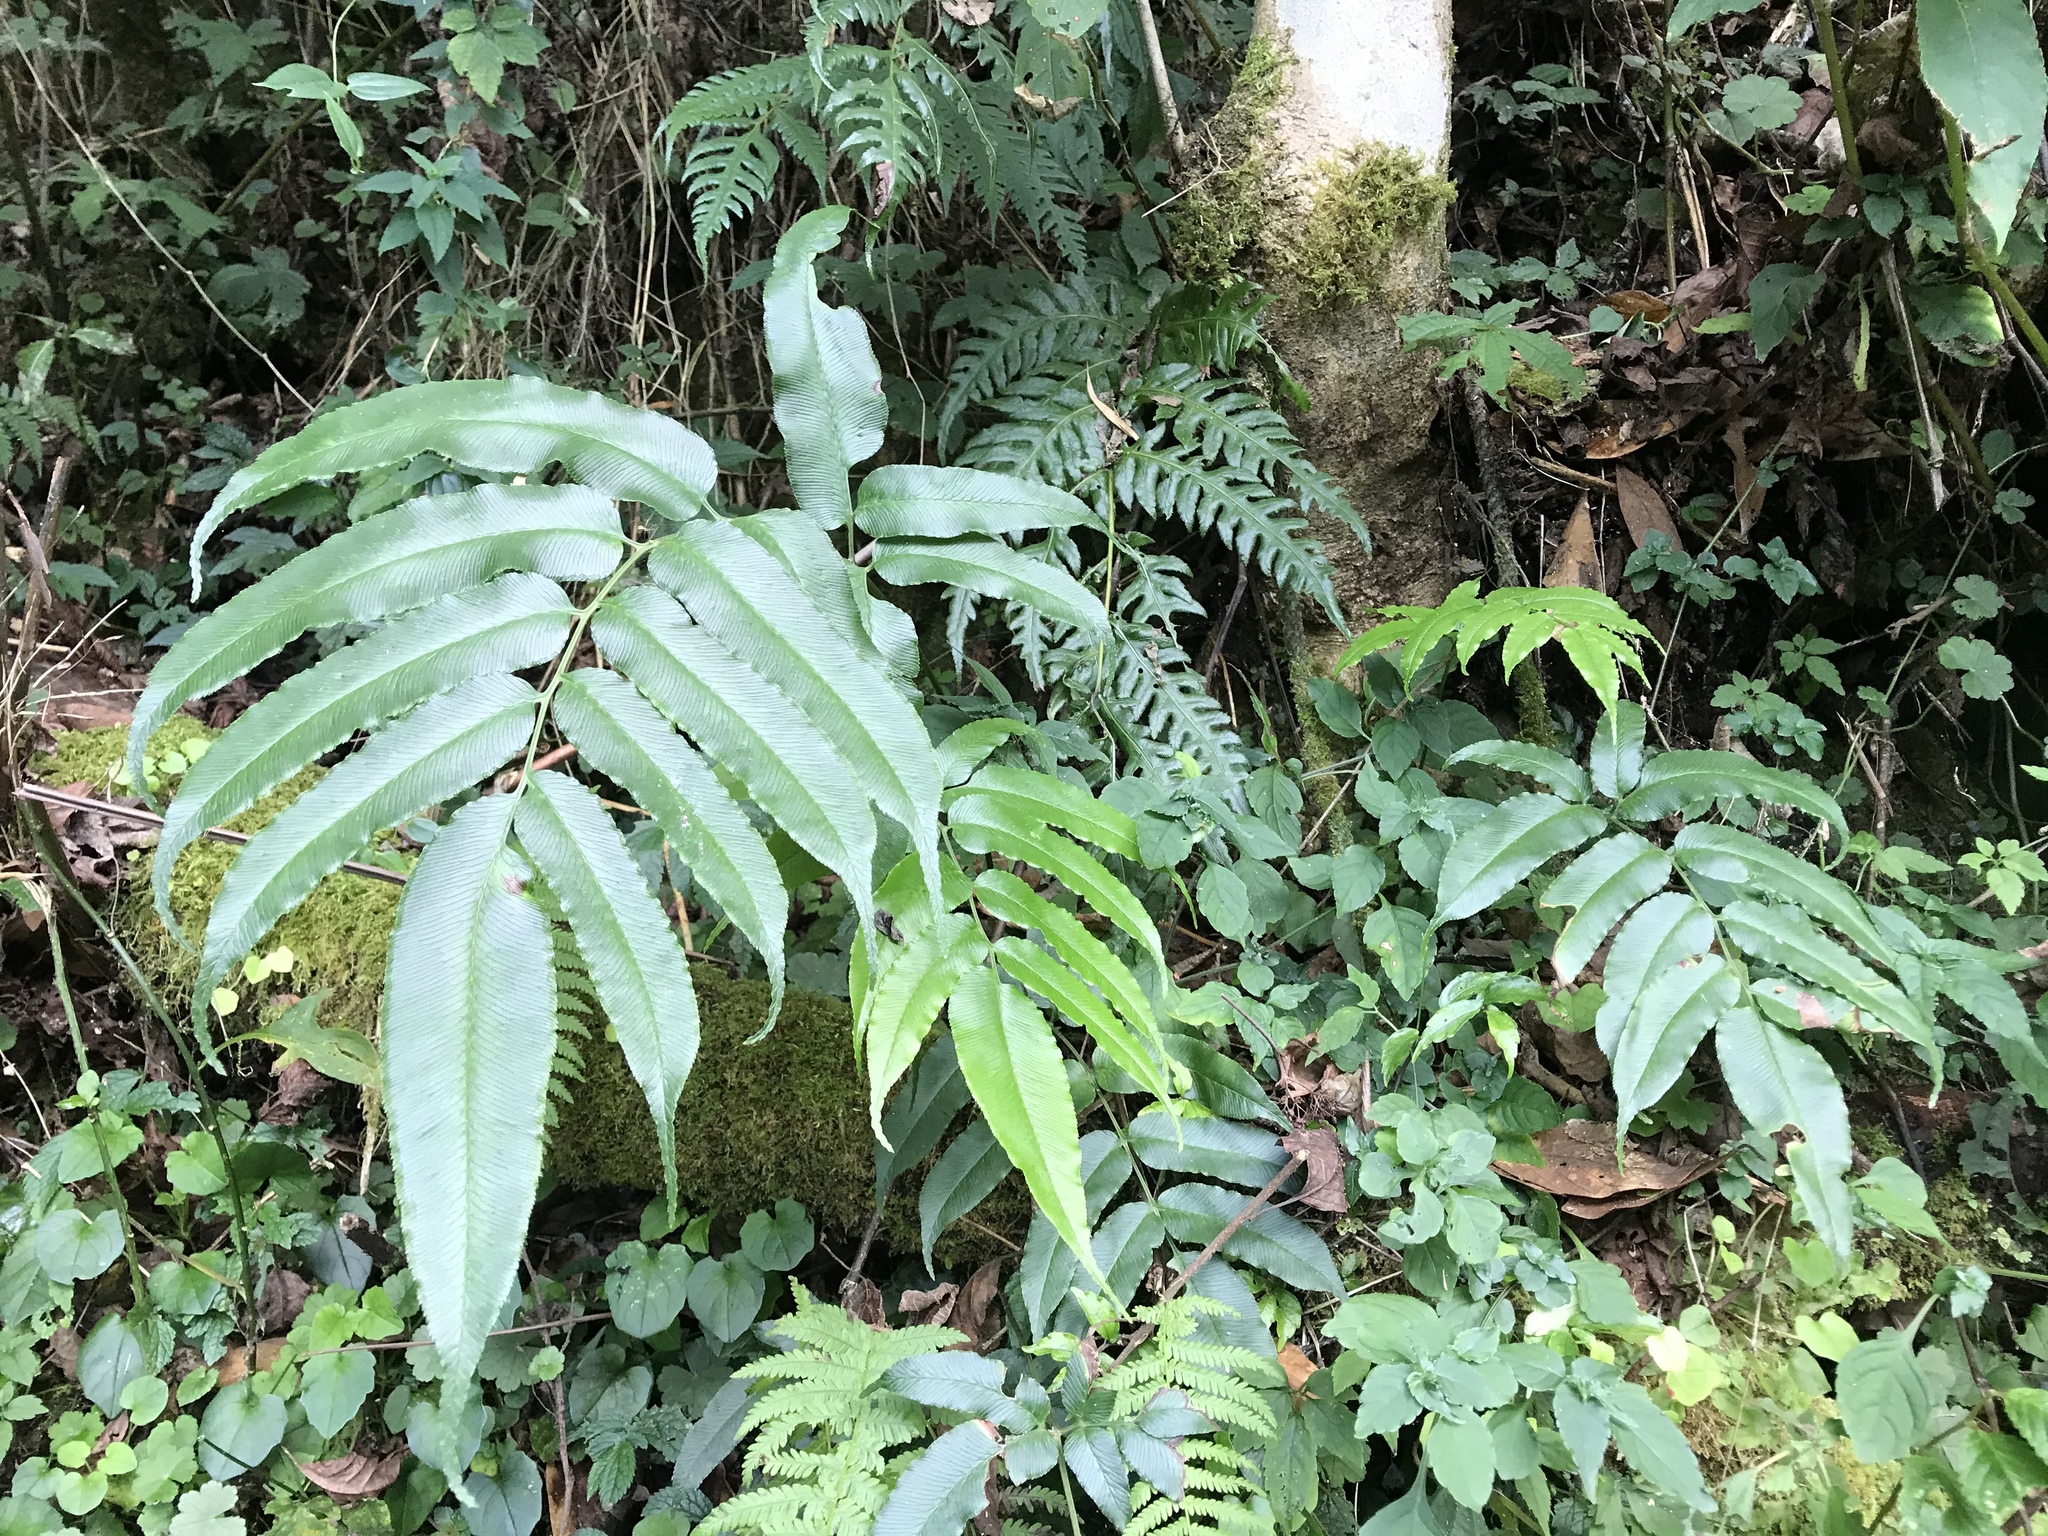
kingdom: Plantae
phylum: Tracheophyta
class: Polypodiopsida
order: Polypodiales
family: Pteridaceae
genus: Coniogramme
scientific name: Coniogramme intermedia
